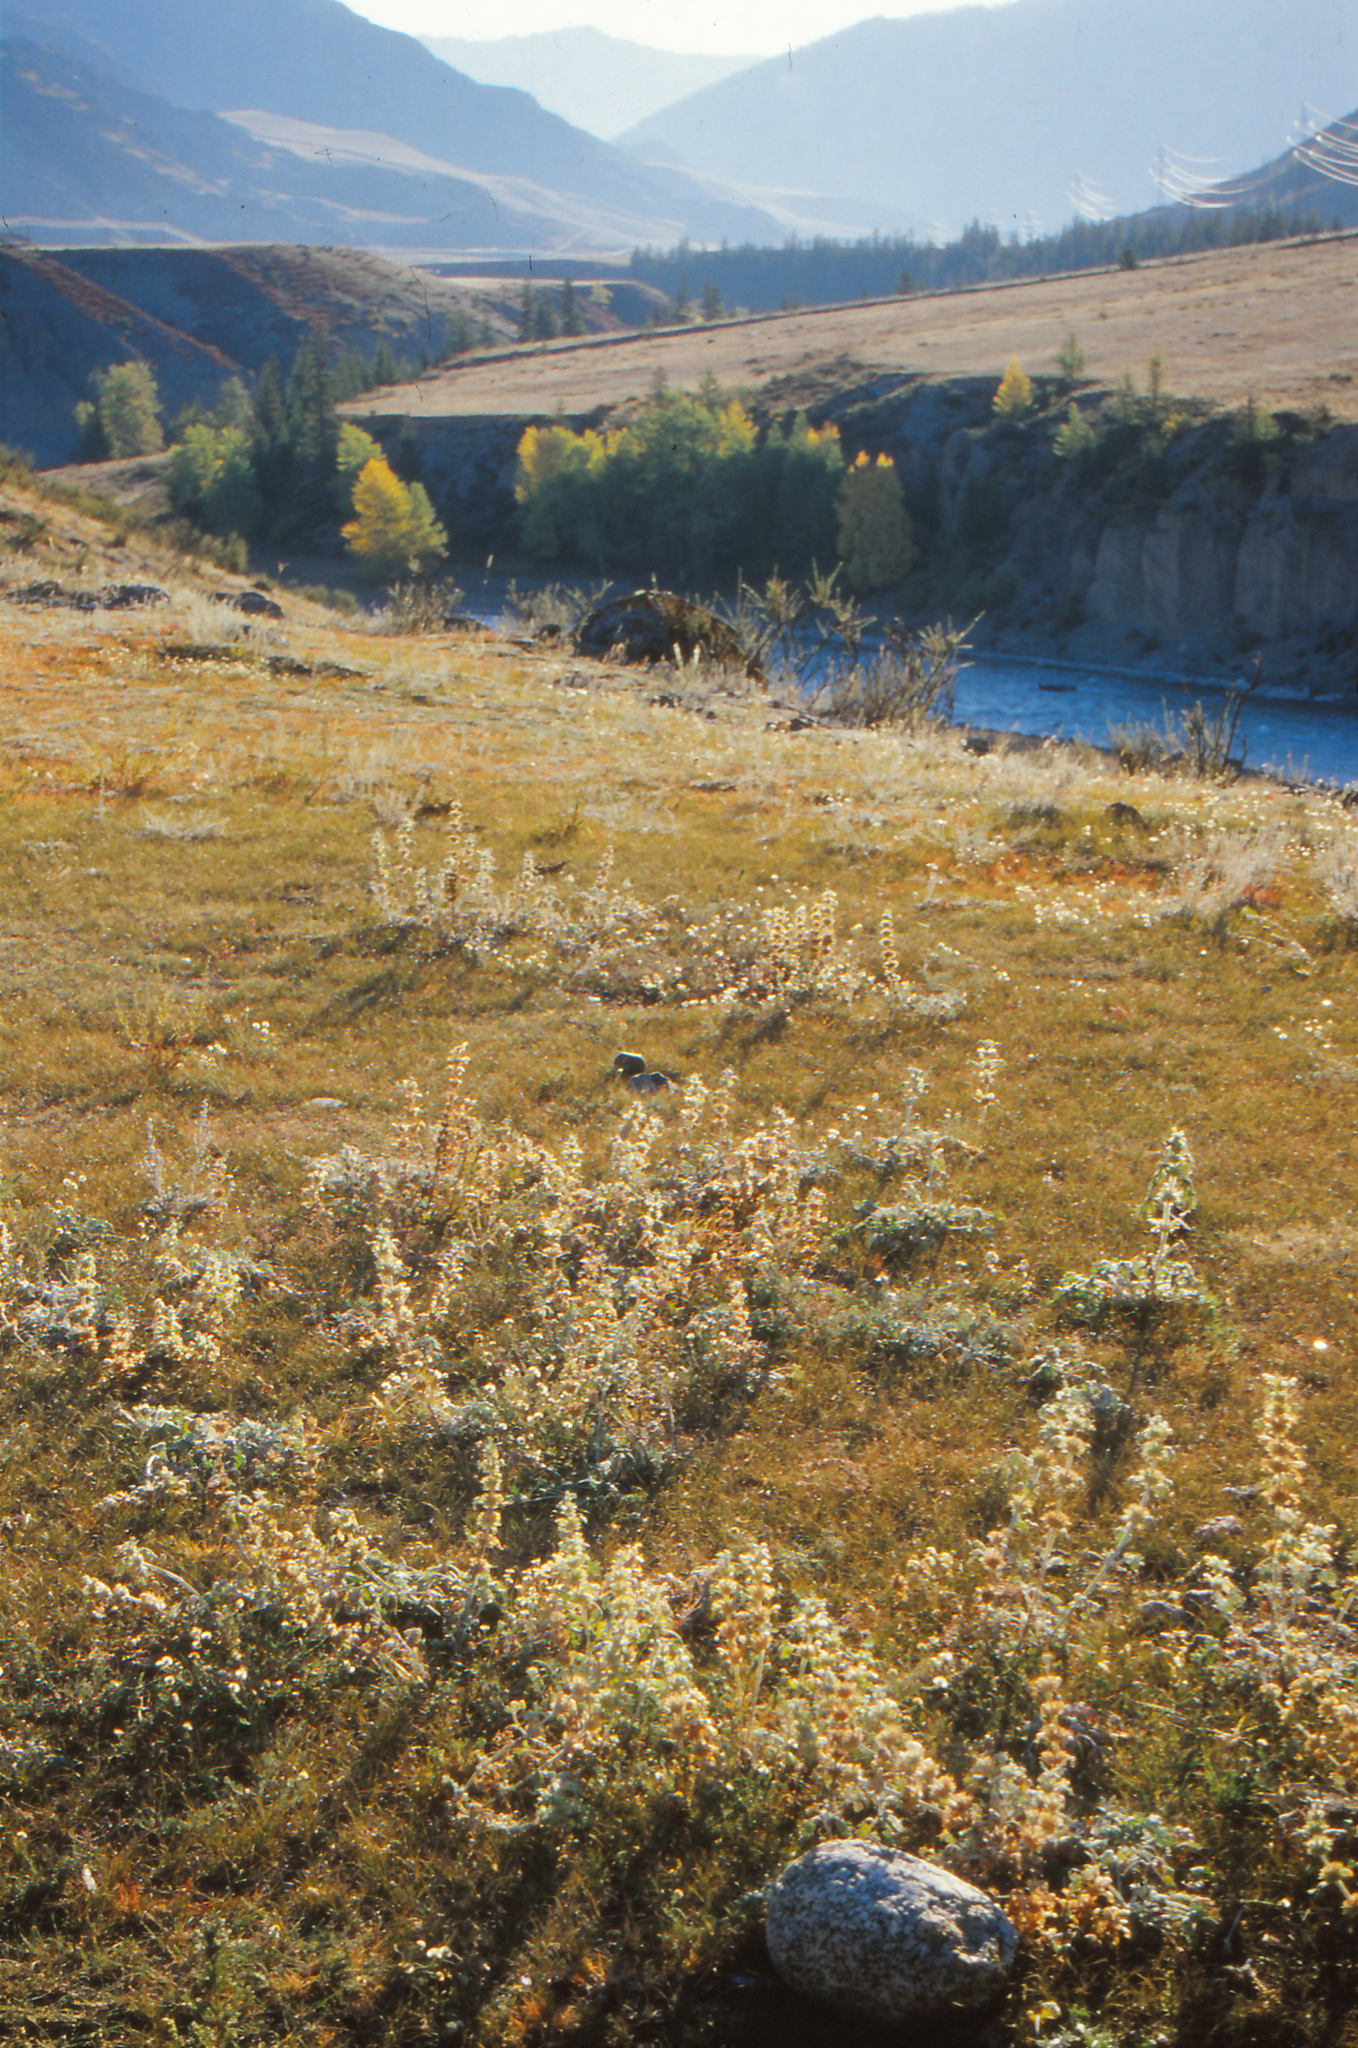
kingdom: Plantae
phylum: Tracheophyta
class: Magnoliopsida
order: Lamiales
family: Lamiaceae
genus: Panzerina
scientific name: Panzerina lanata
